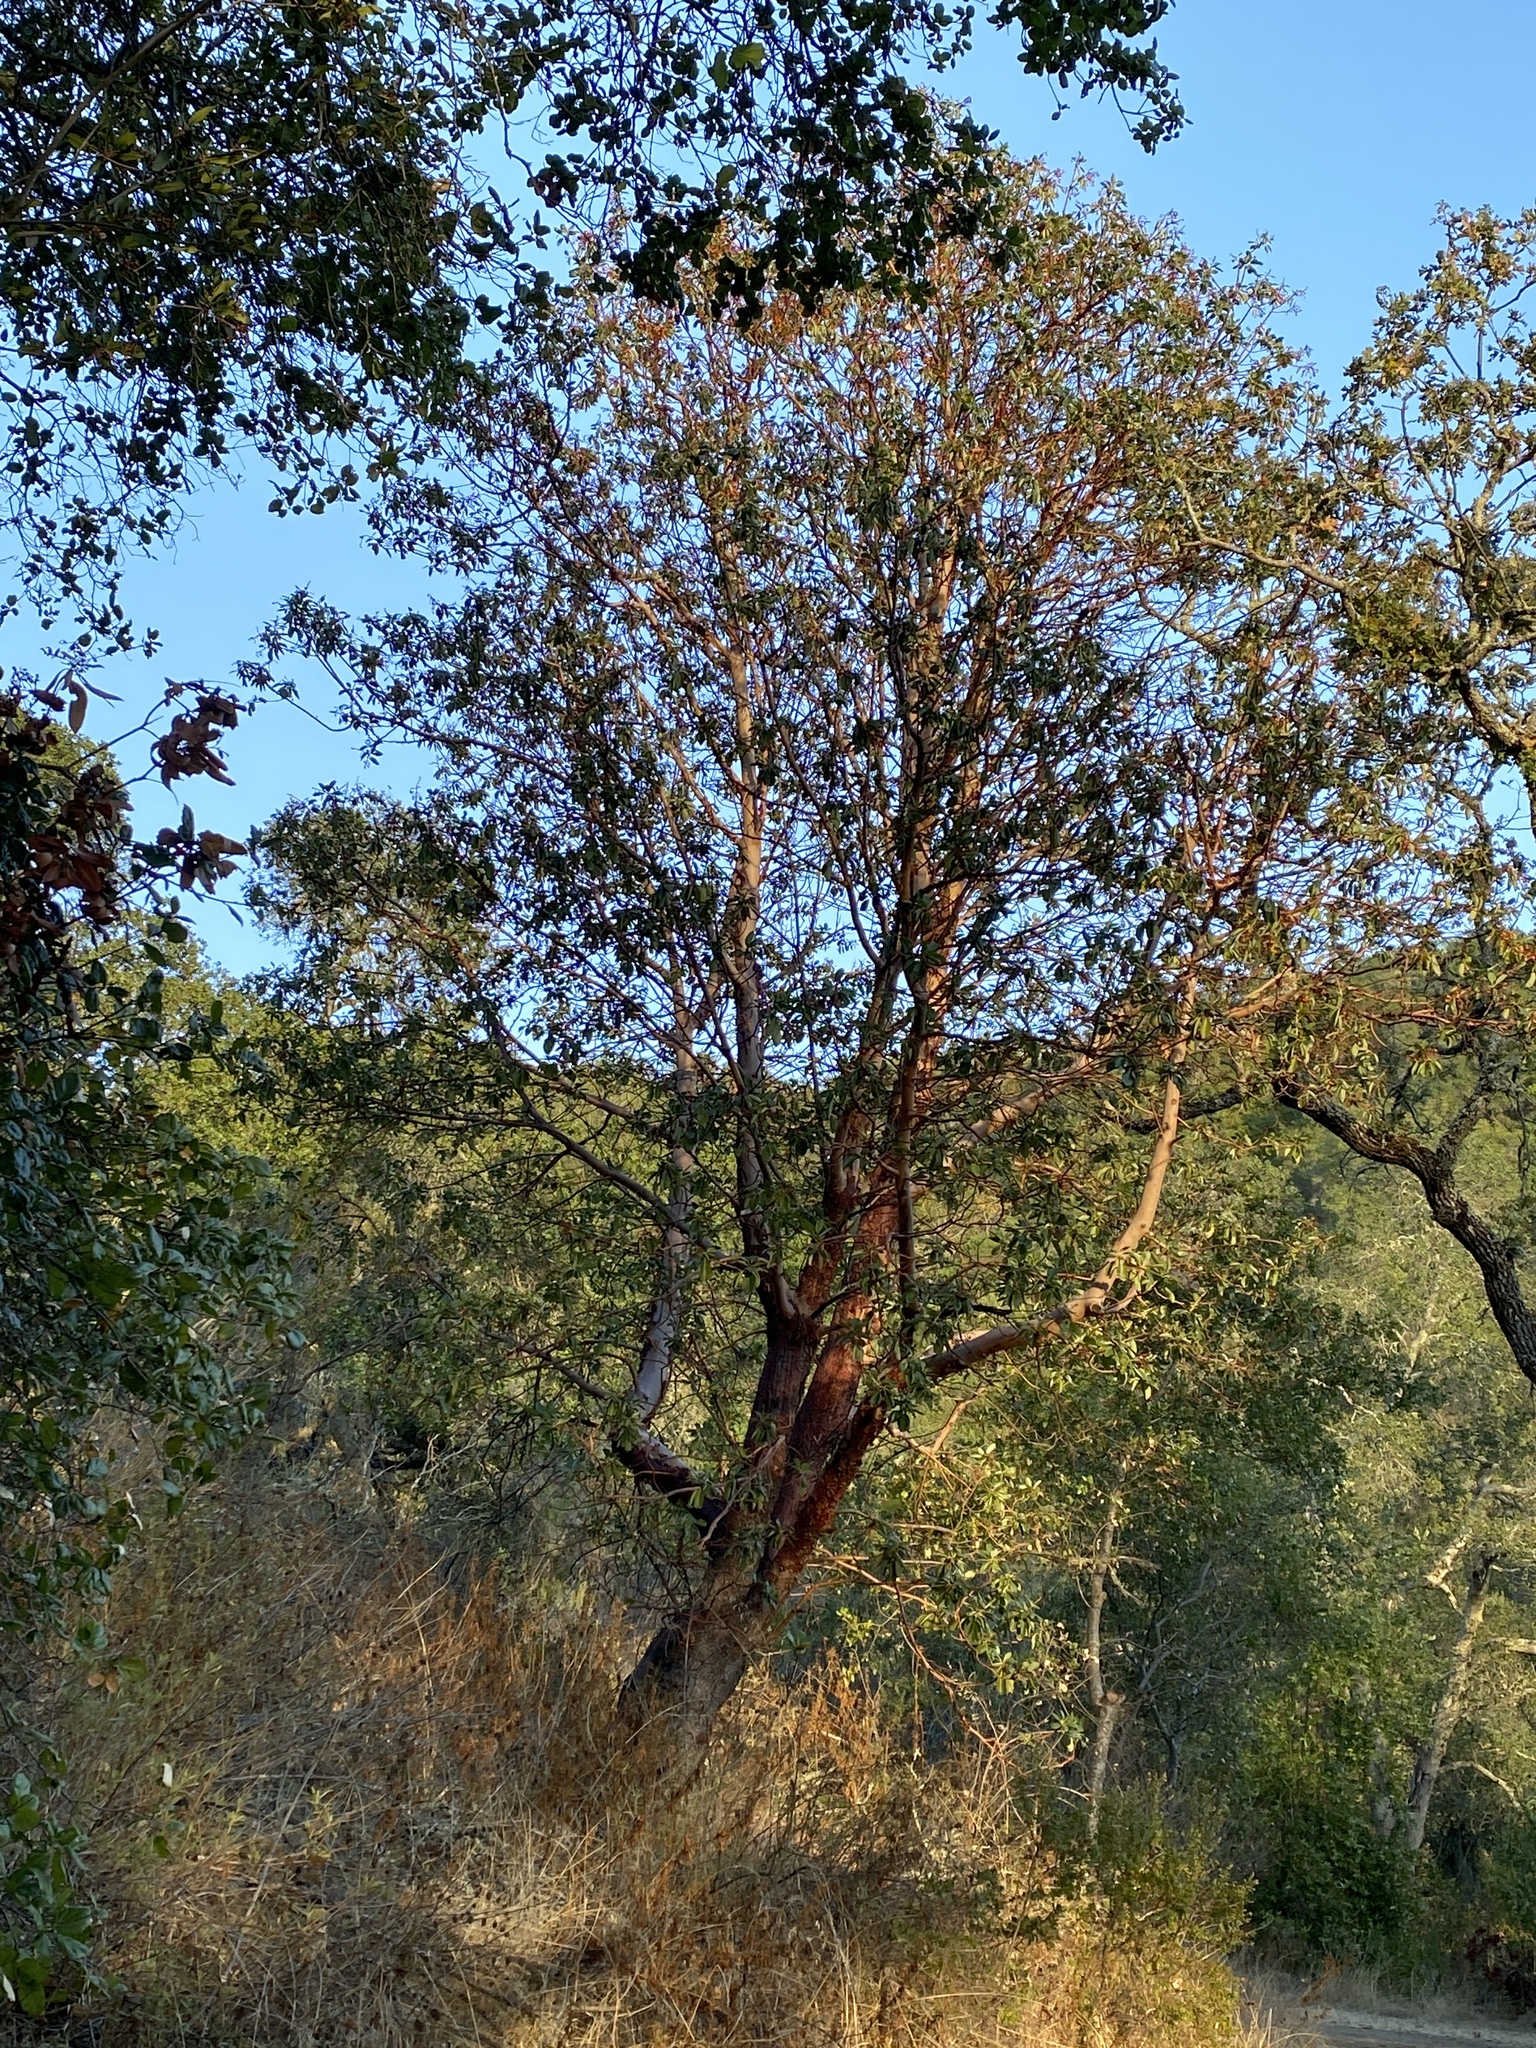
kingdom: Plantae
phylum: Tracheophyta
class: Magnoliopsida
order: Ericales
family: Ericaceae
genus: Arbutus
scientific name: Arbutus menziesii
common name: Pacific madrone
